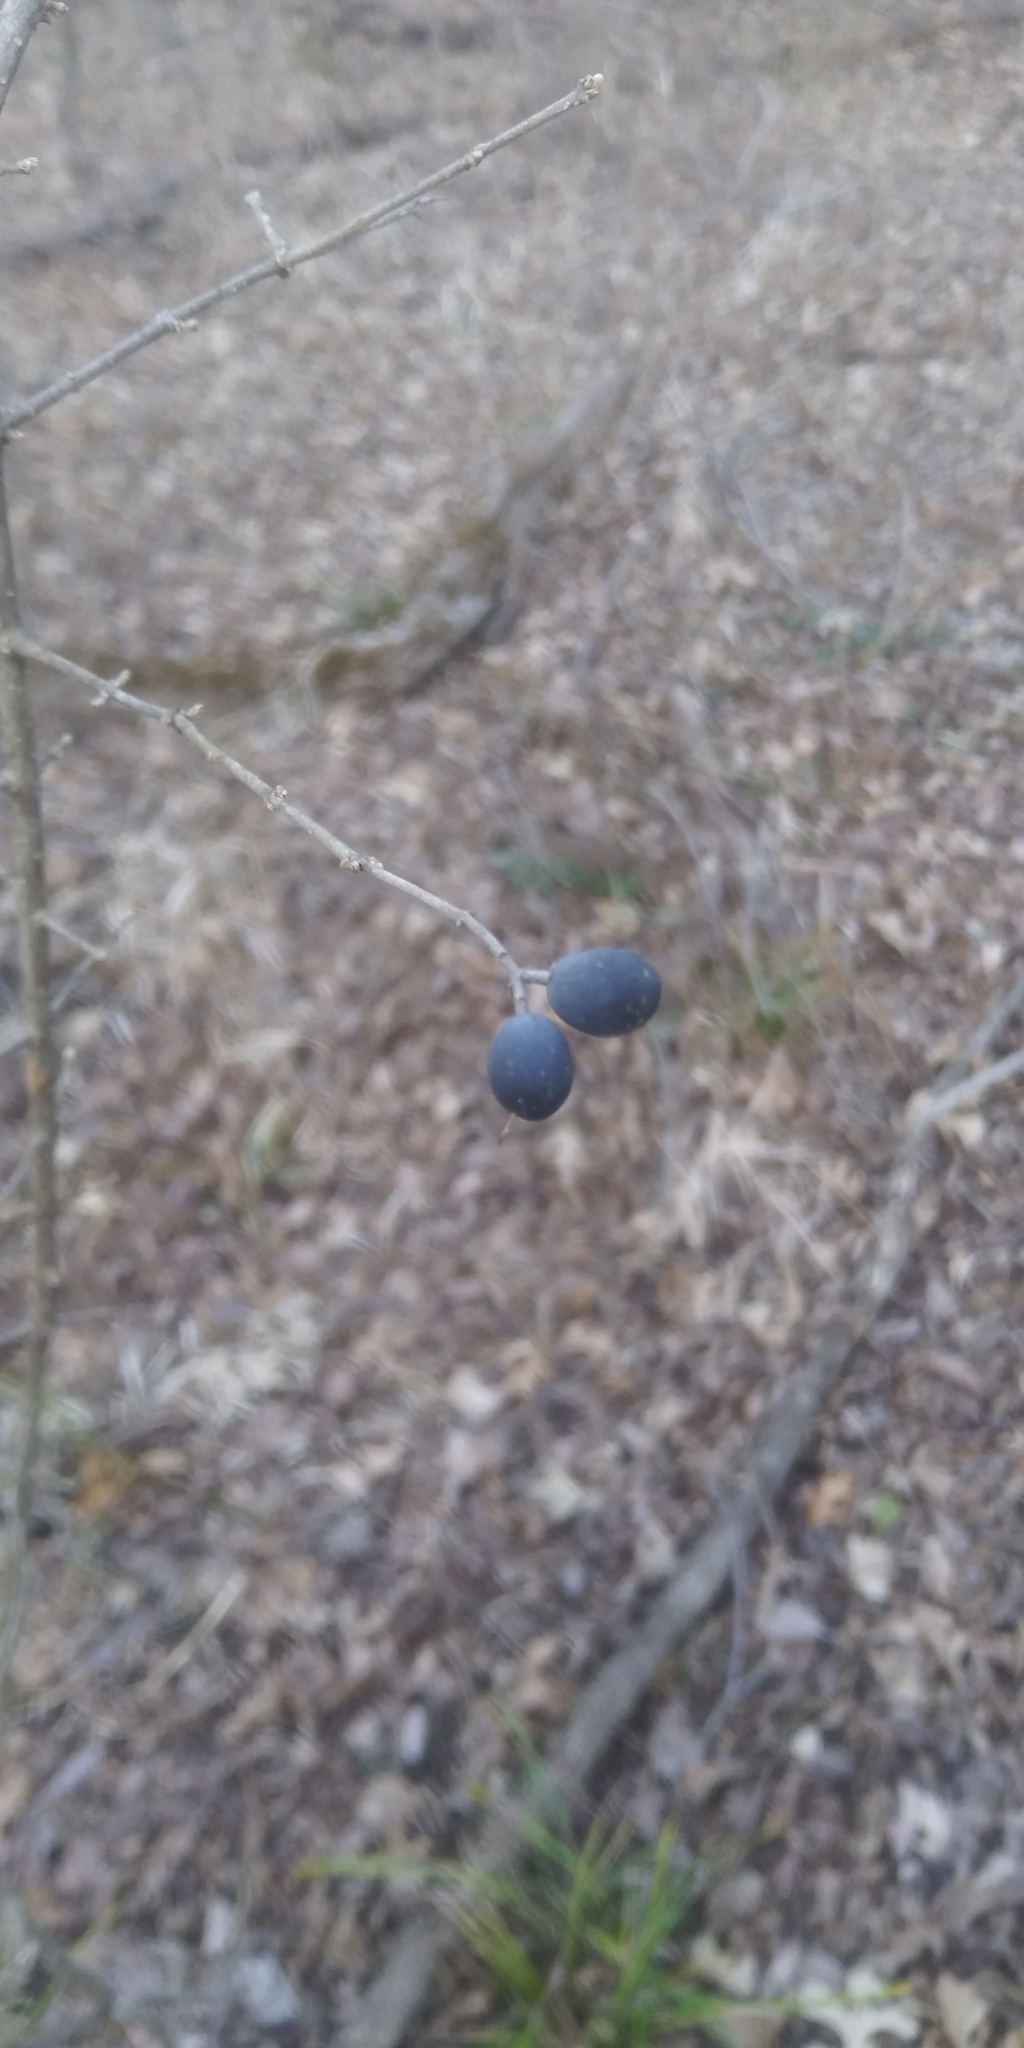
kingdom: Plantae
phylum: Tracheophyta
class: Magnoliopsida
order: Lamiales
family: Oleaceae
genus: Ligustrum
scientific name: Ligustrum quihoui
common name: Waxyleaf privet
